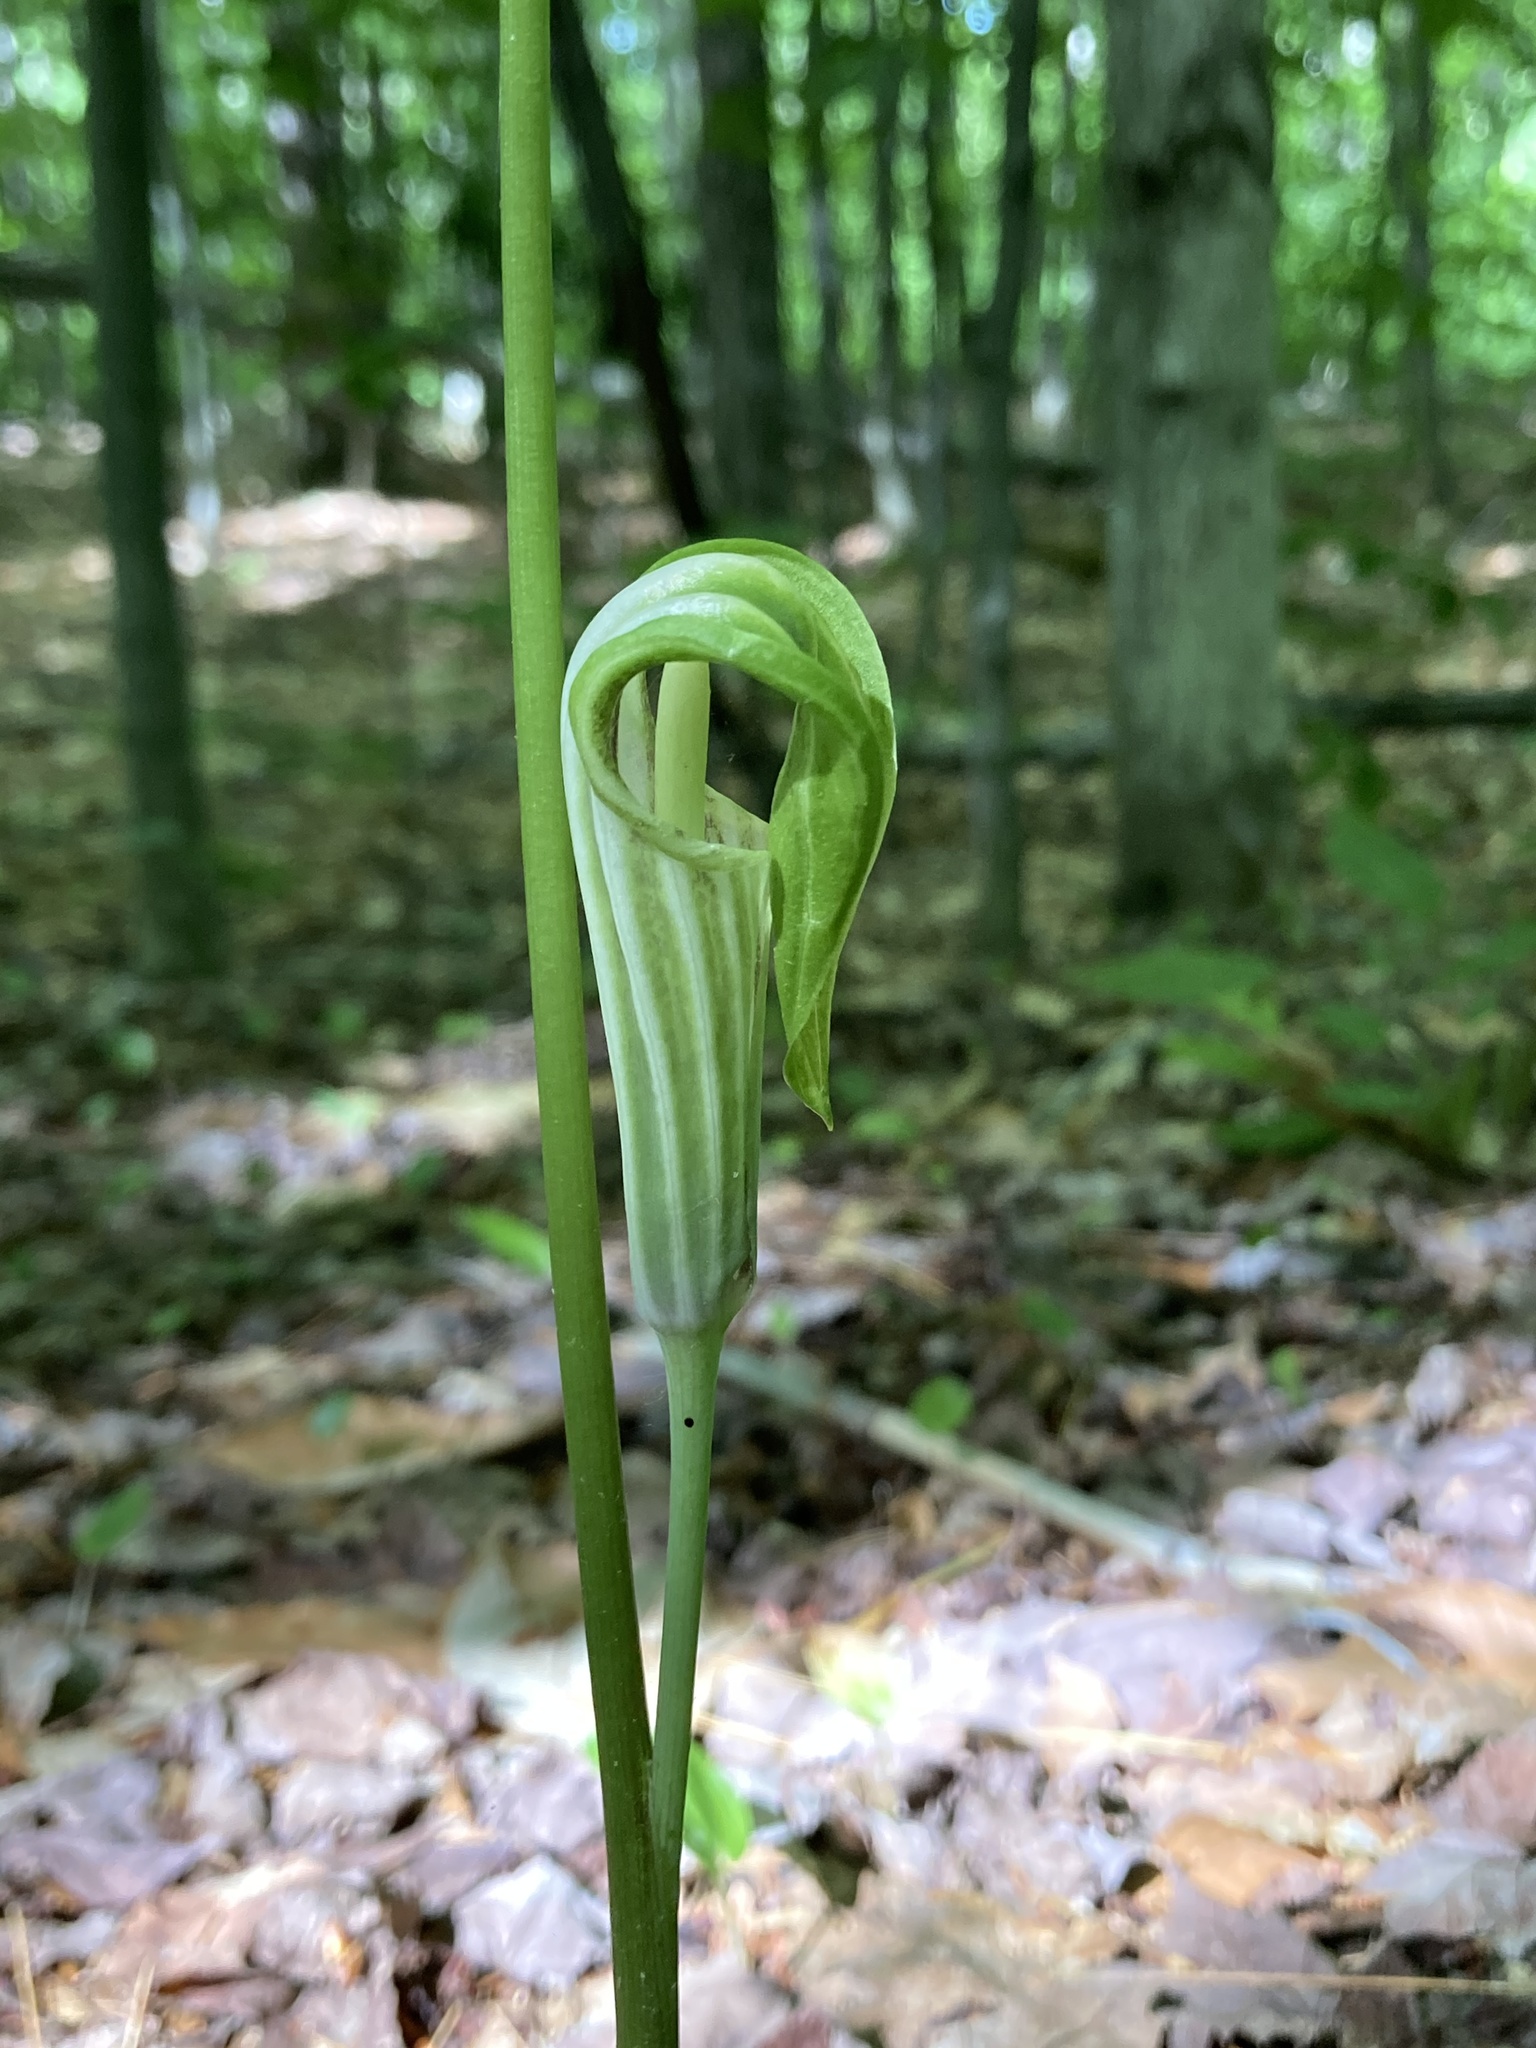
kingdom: Plantae
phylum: Tracheophyta
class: Liliopsida
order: Alismatales
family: Araceae
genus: Arisaema
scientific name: Arisaema stewardsonii
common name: Swamp jack-in-the-pulpit
